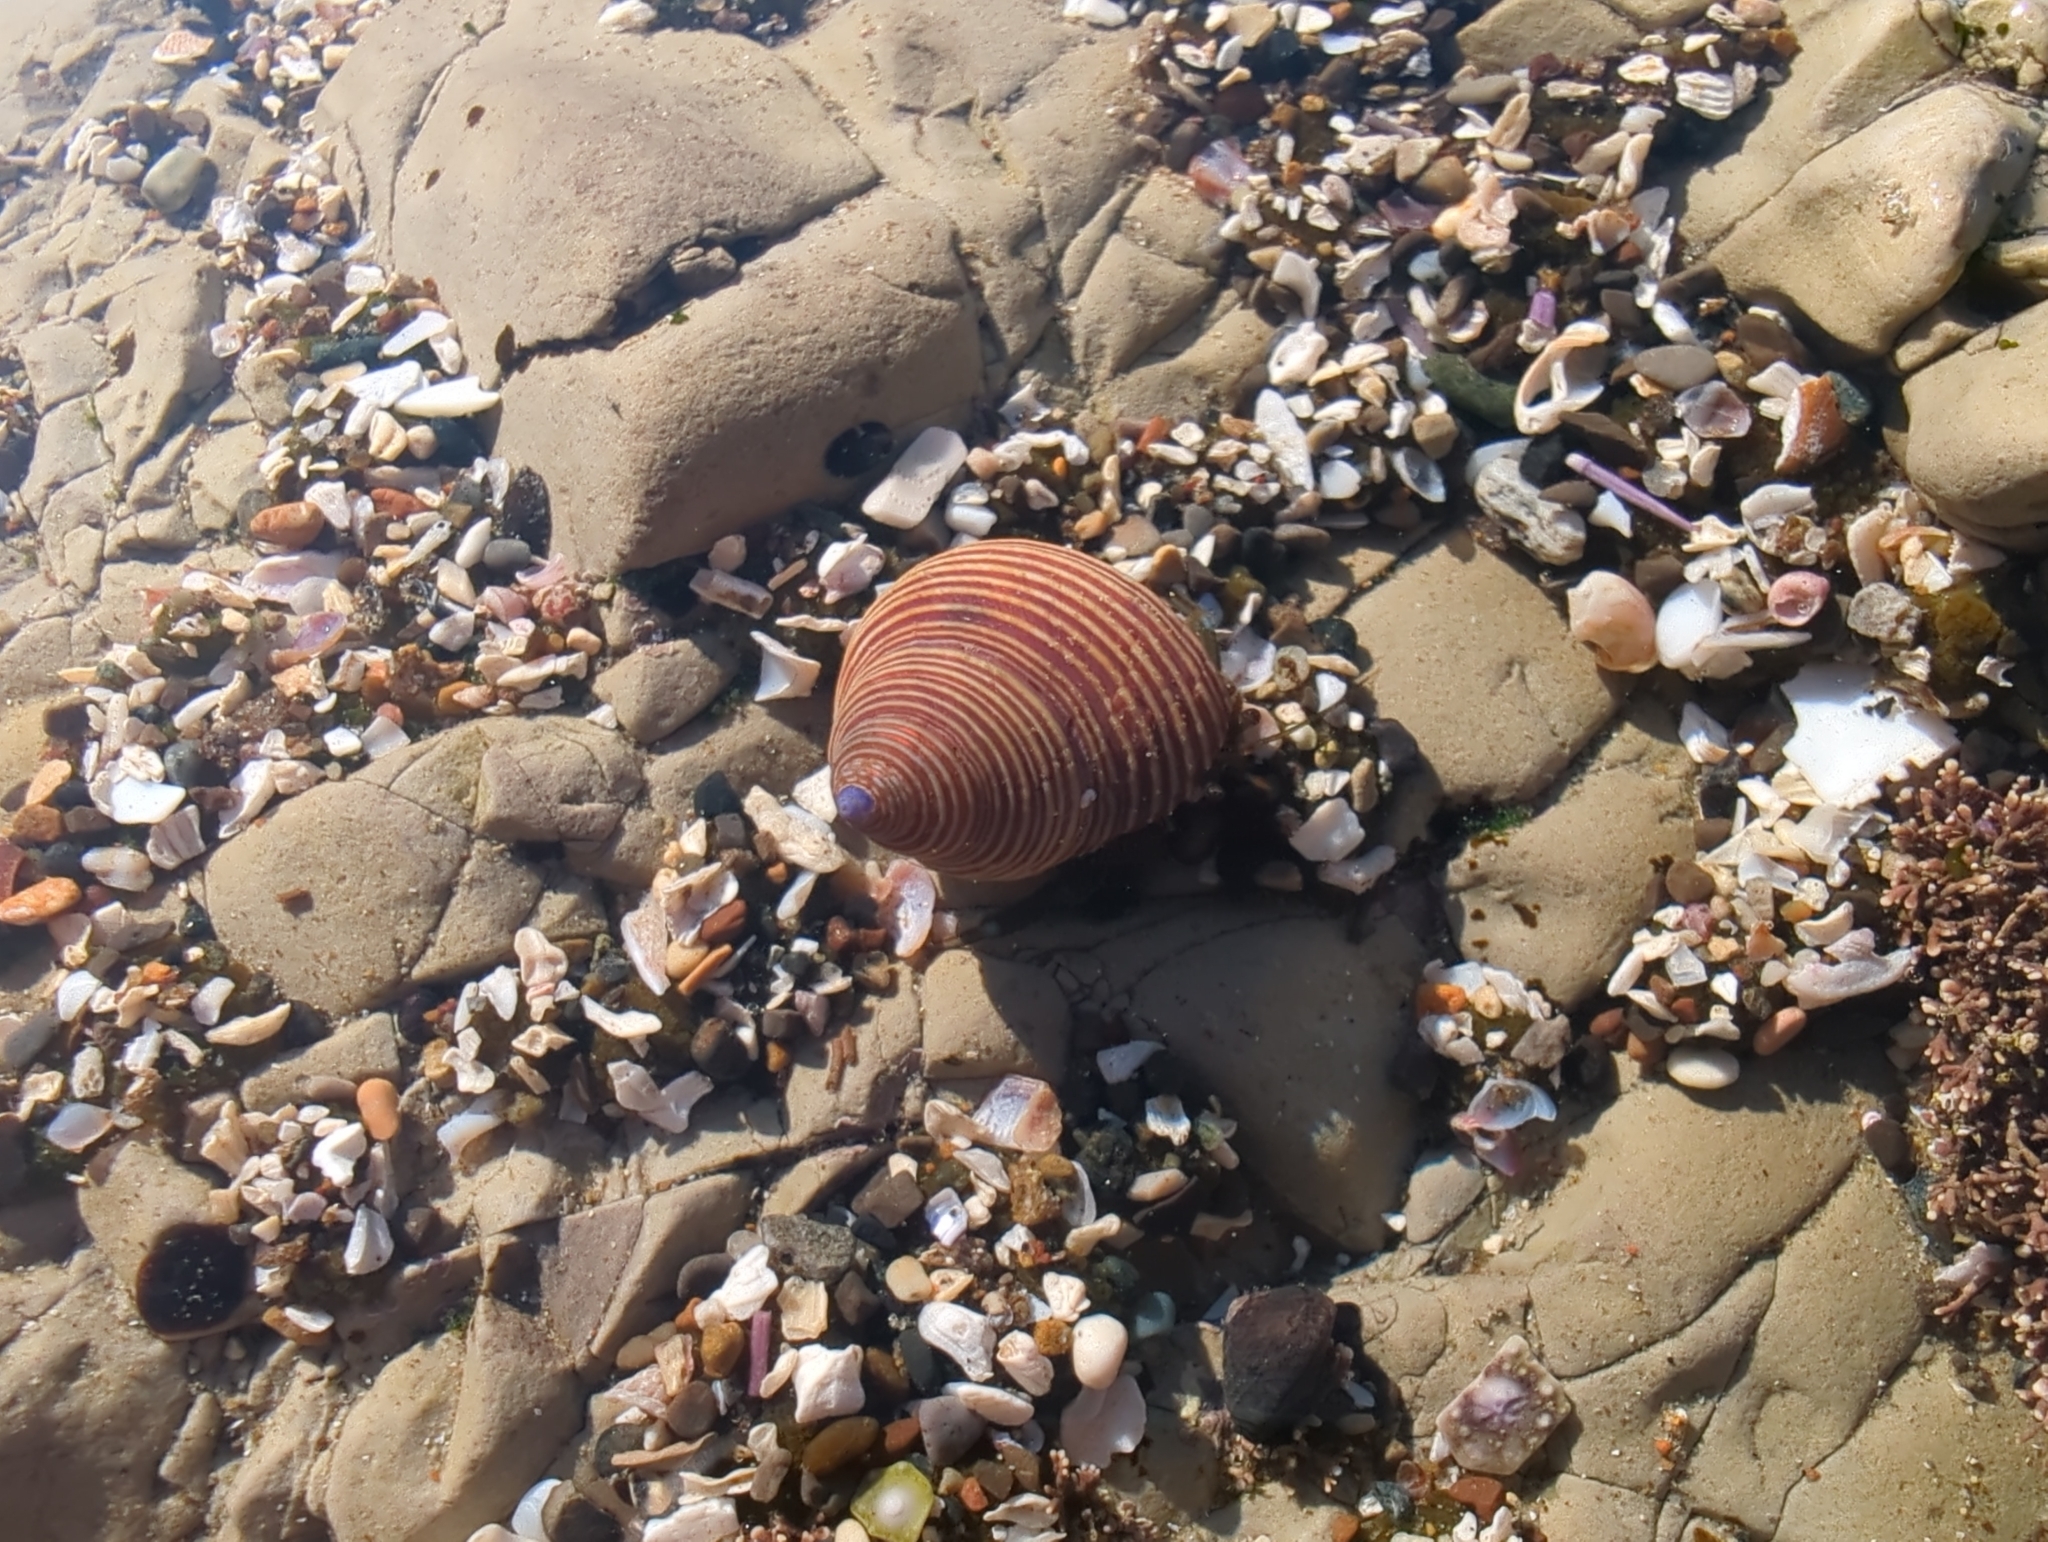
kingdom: Animalia
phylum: Mollusca
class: Gastropoda
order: Trochida
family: Calliostomatidae
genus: Calliostoma
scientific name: Calliostoma ligatum
